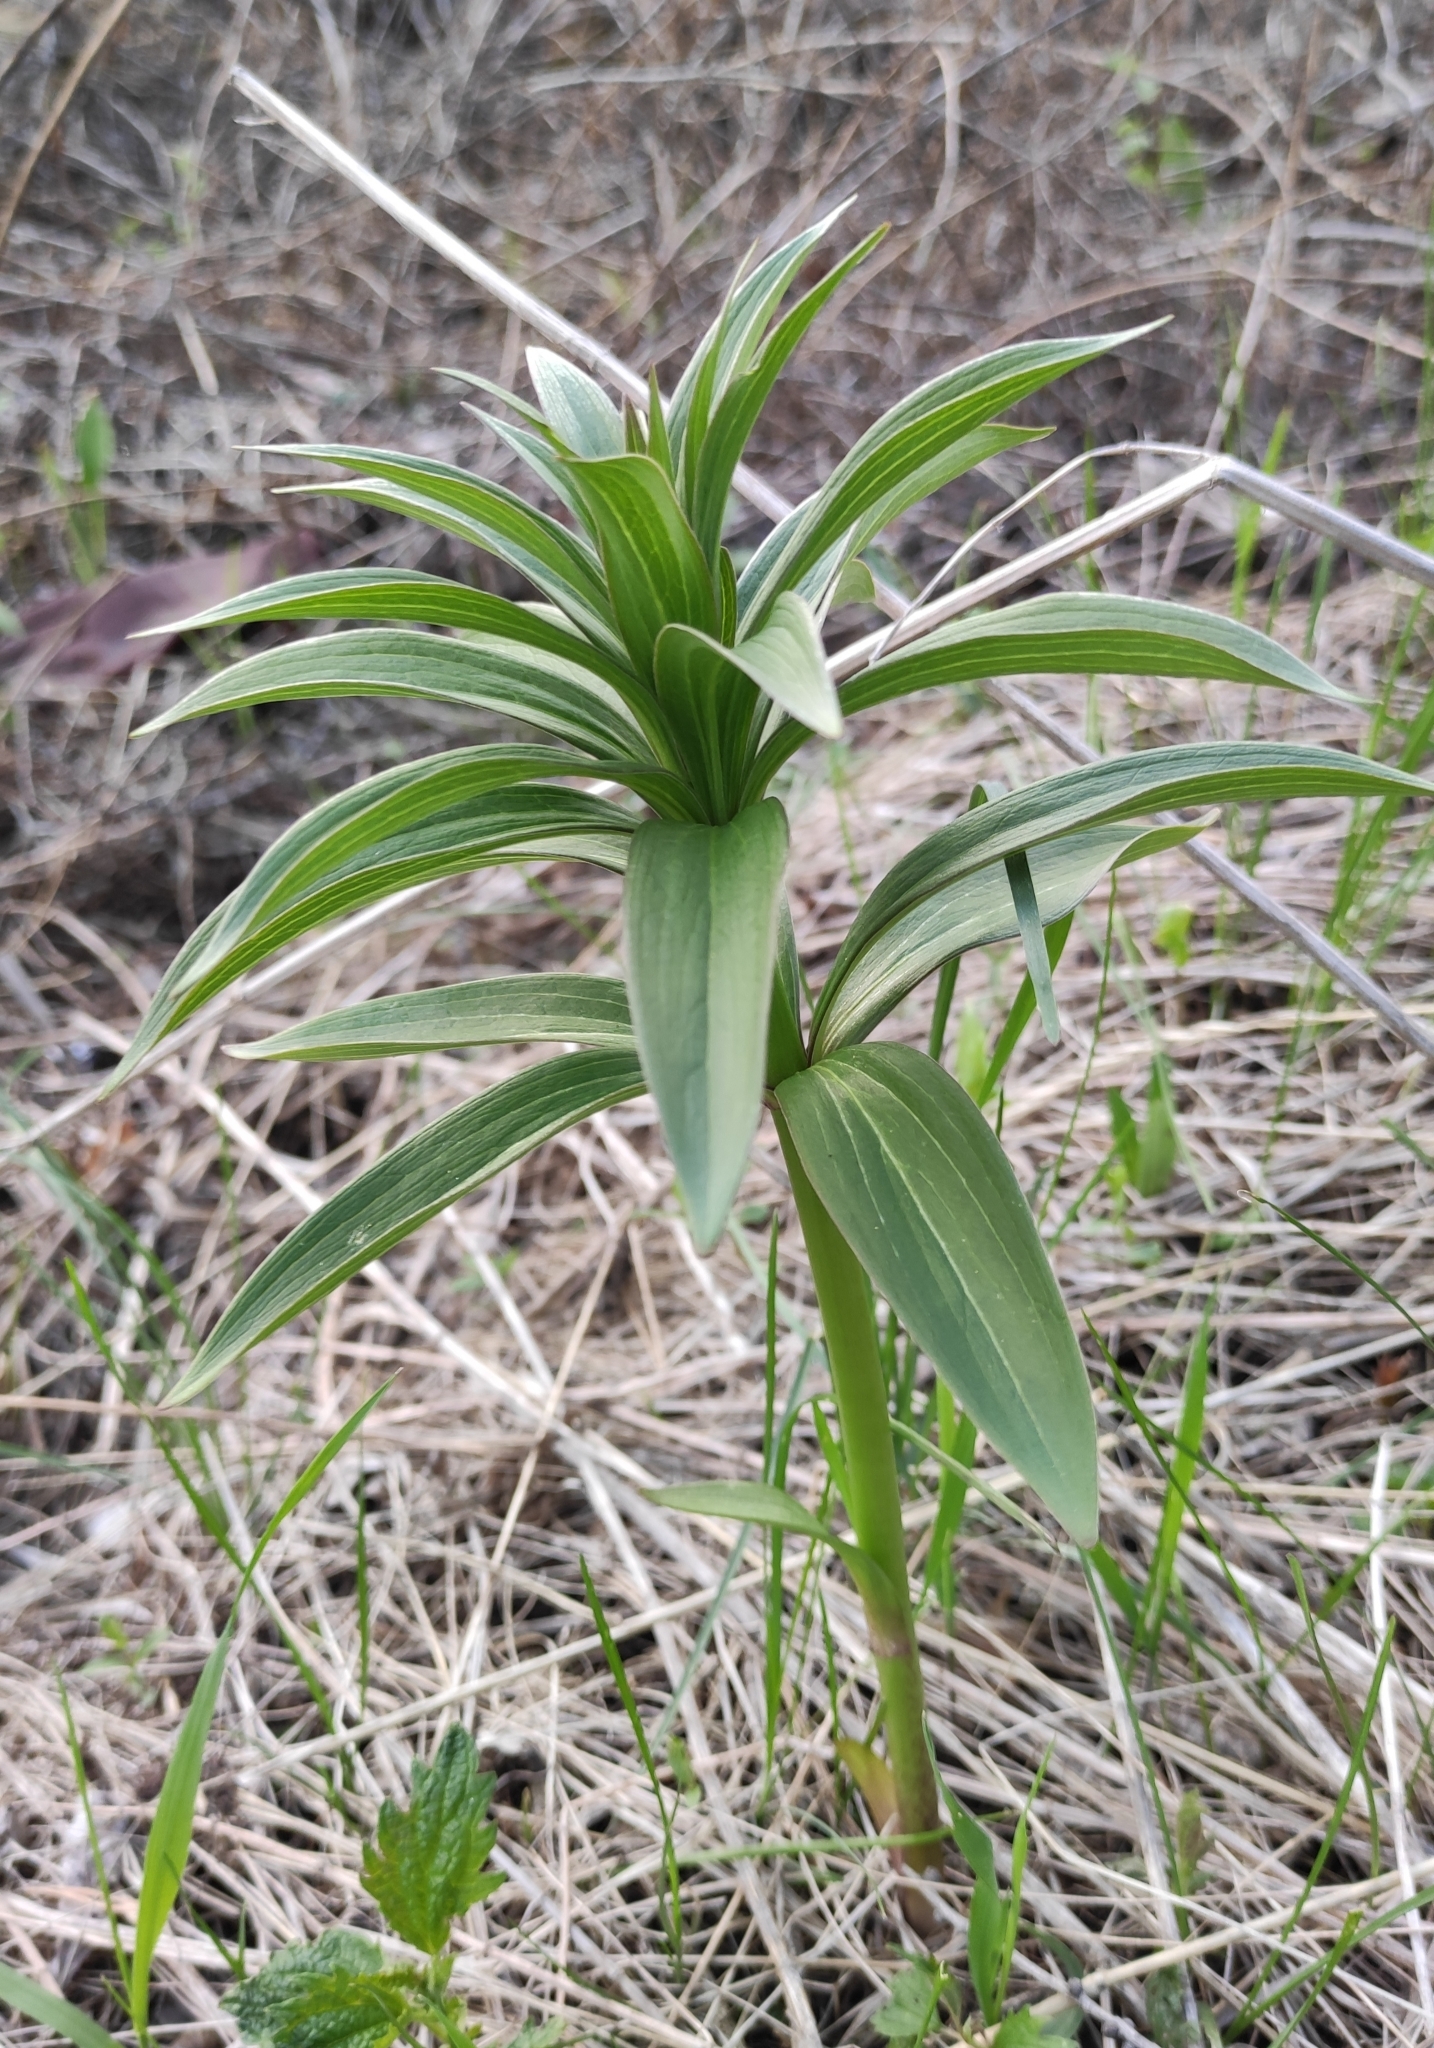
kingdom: Plantae
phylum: Tracheophyta
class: Liliopsida
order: Liliales
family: Liliaceae
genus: Lilium
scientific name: Lilium martagon
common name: Martagon lily
